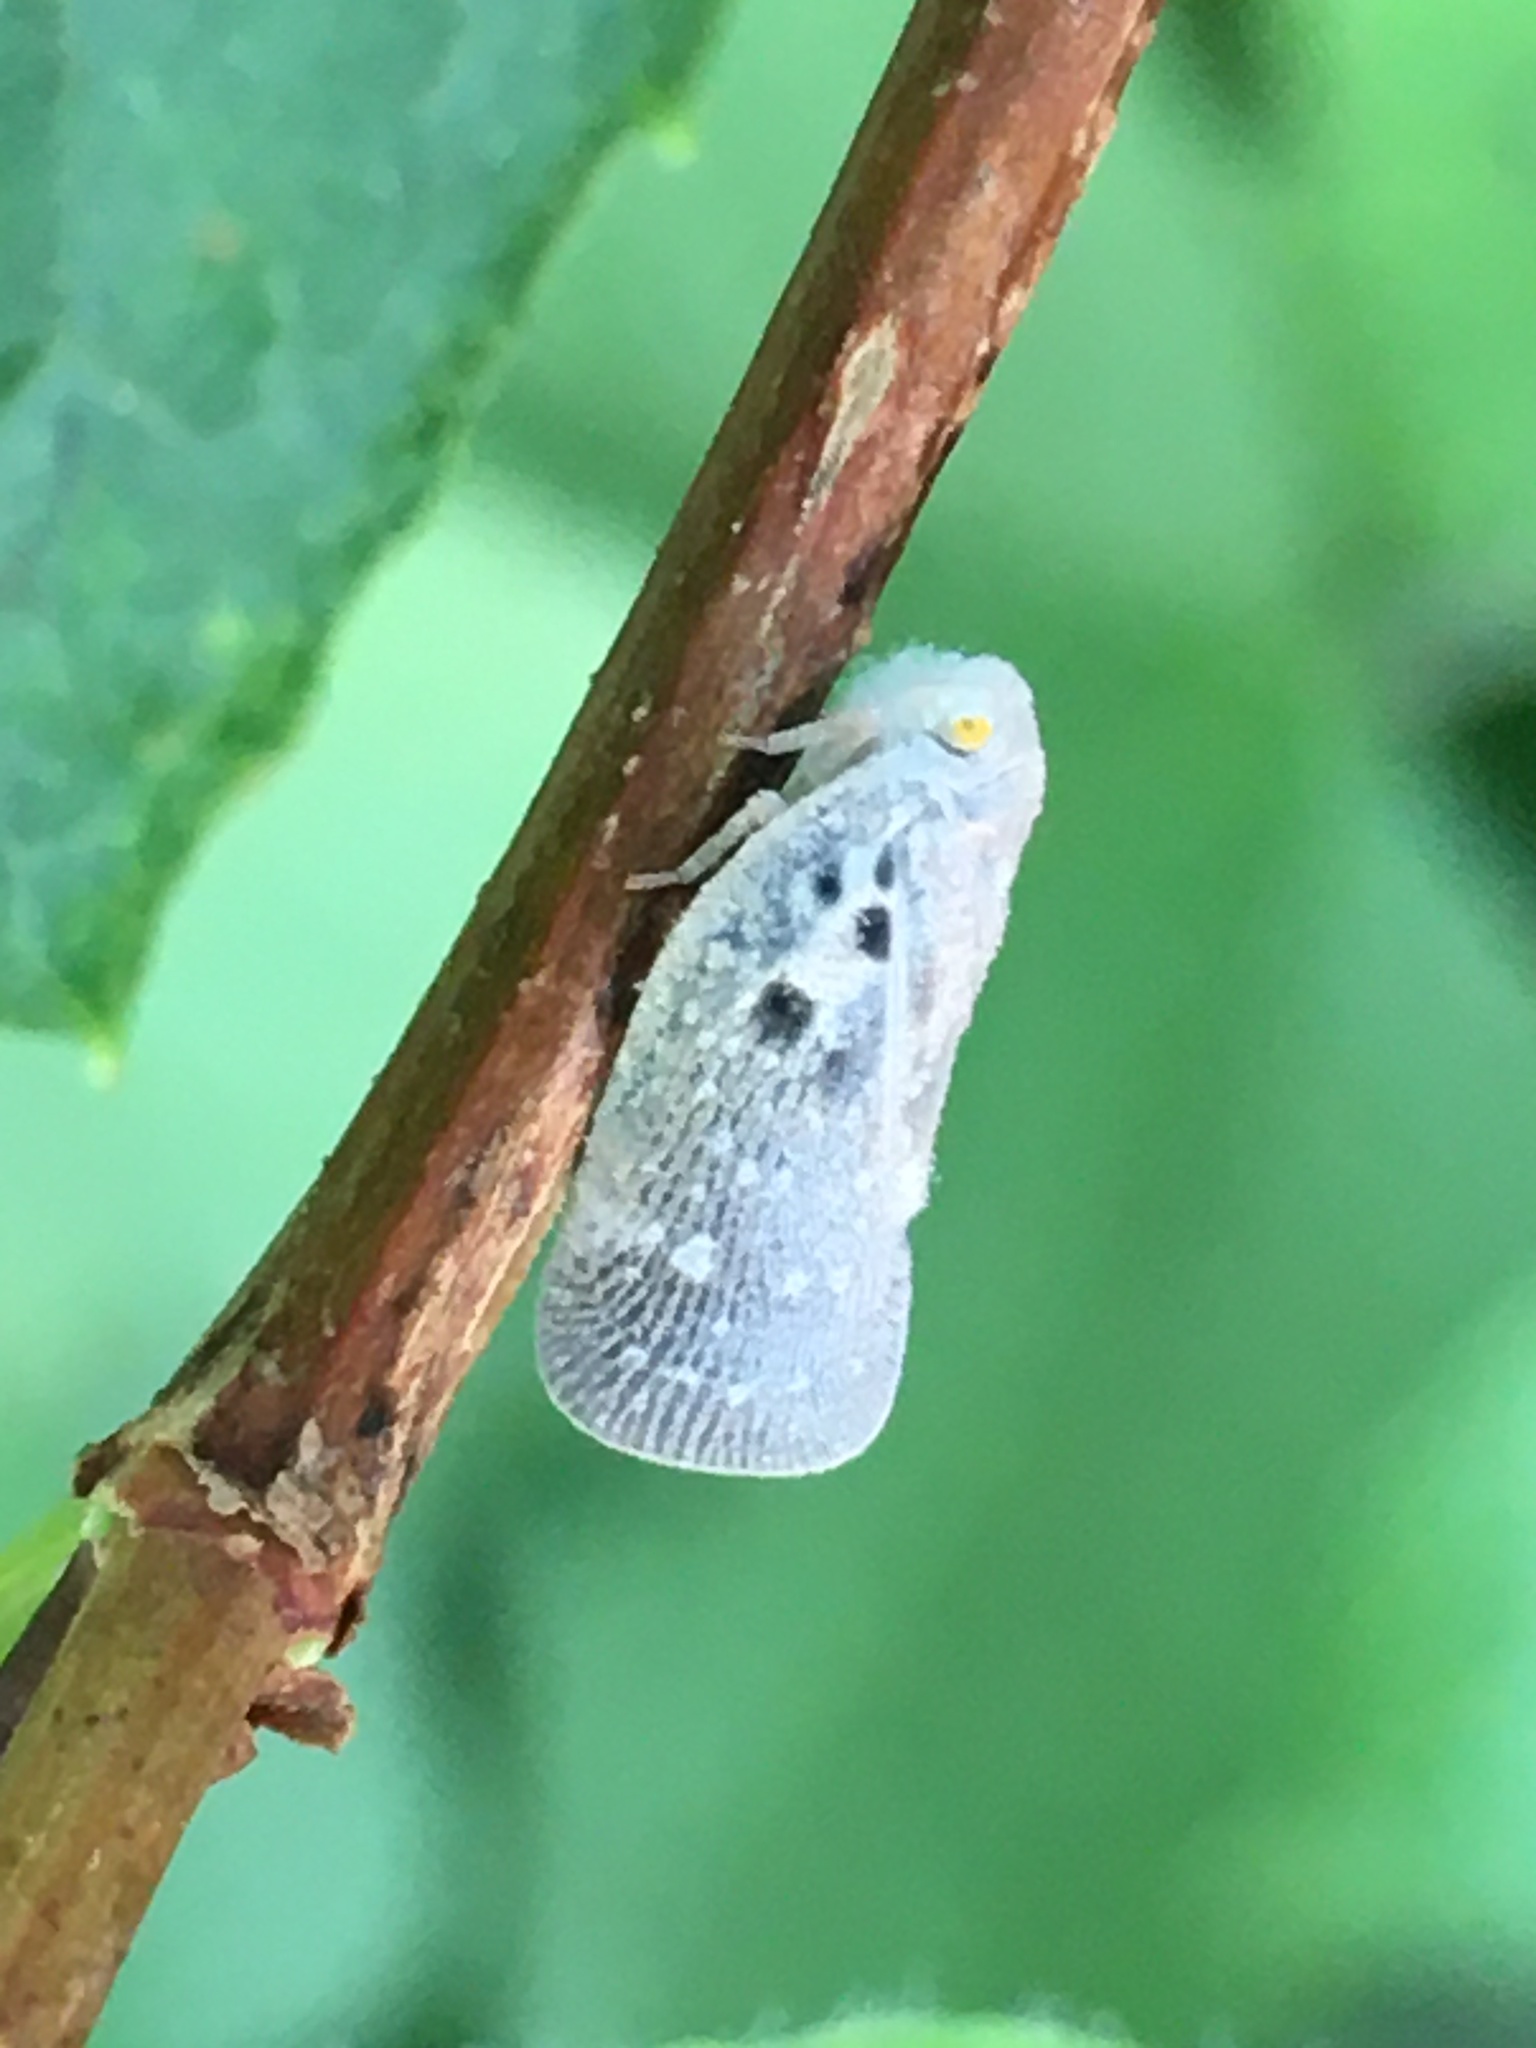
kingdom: Animalia
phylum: Arthropoda
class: Insecta
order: Hemiptera
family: Flatidae
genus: Metcalfa
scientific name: Metcalfa pruinosa
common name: Citrus flatid planthopper
